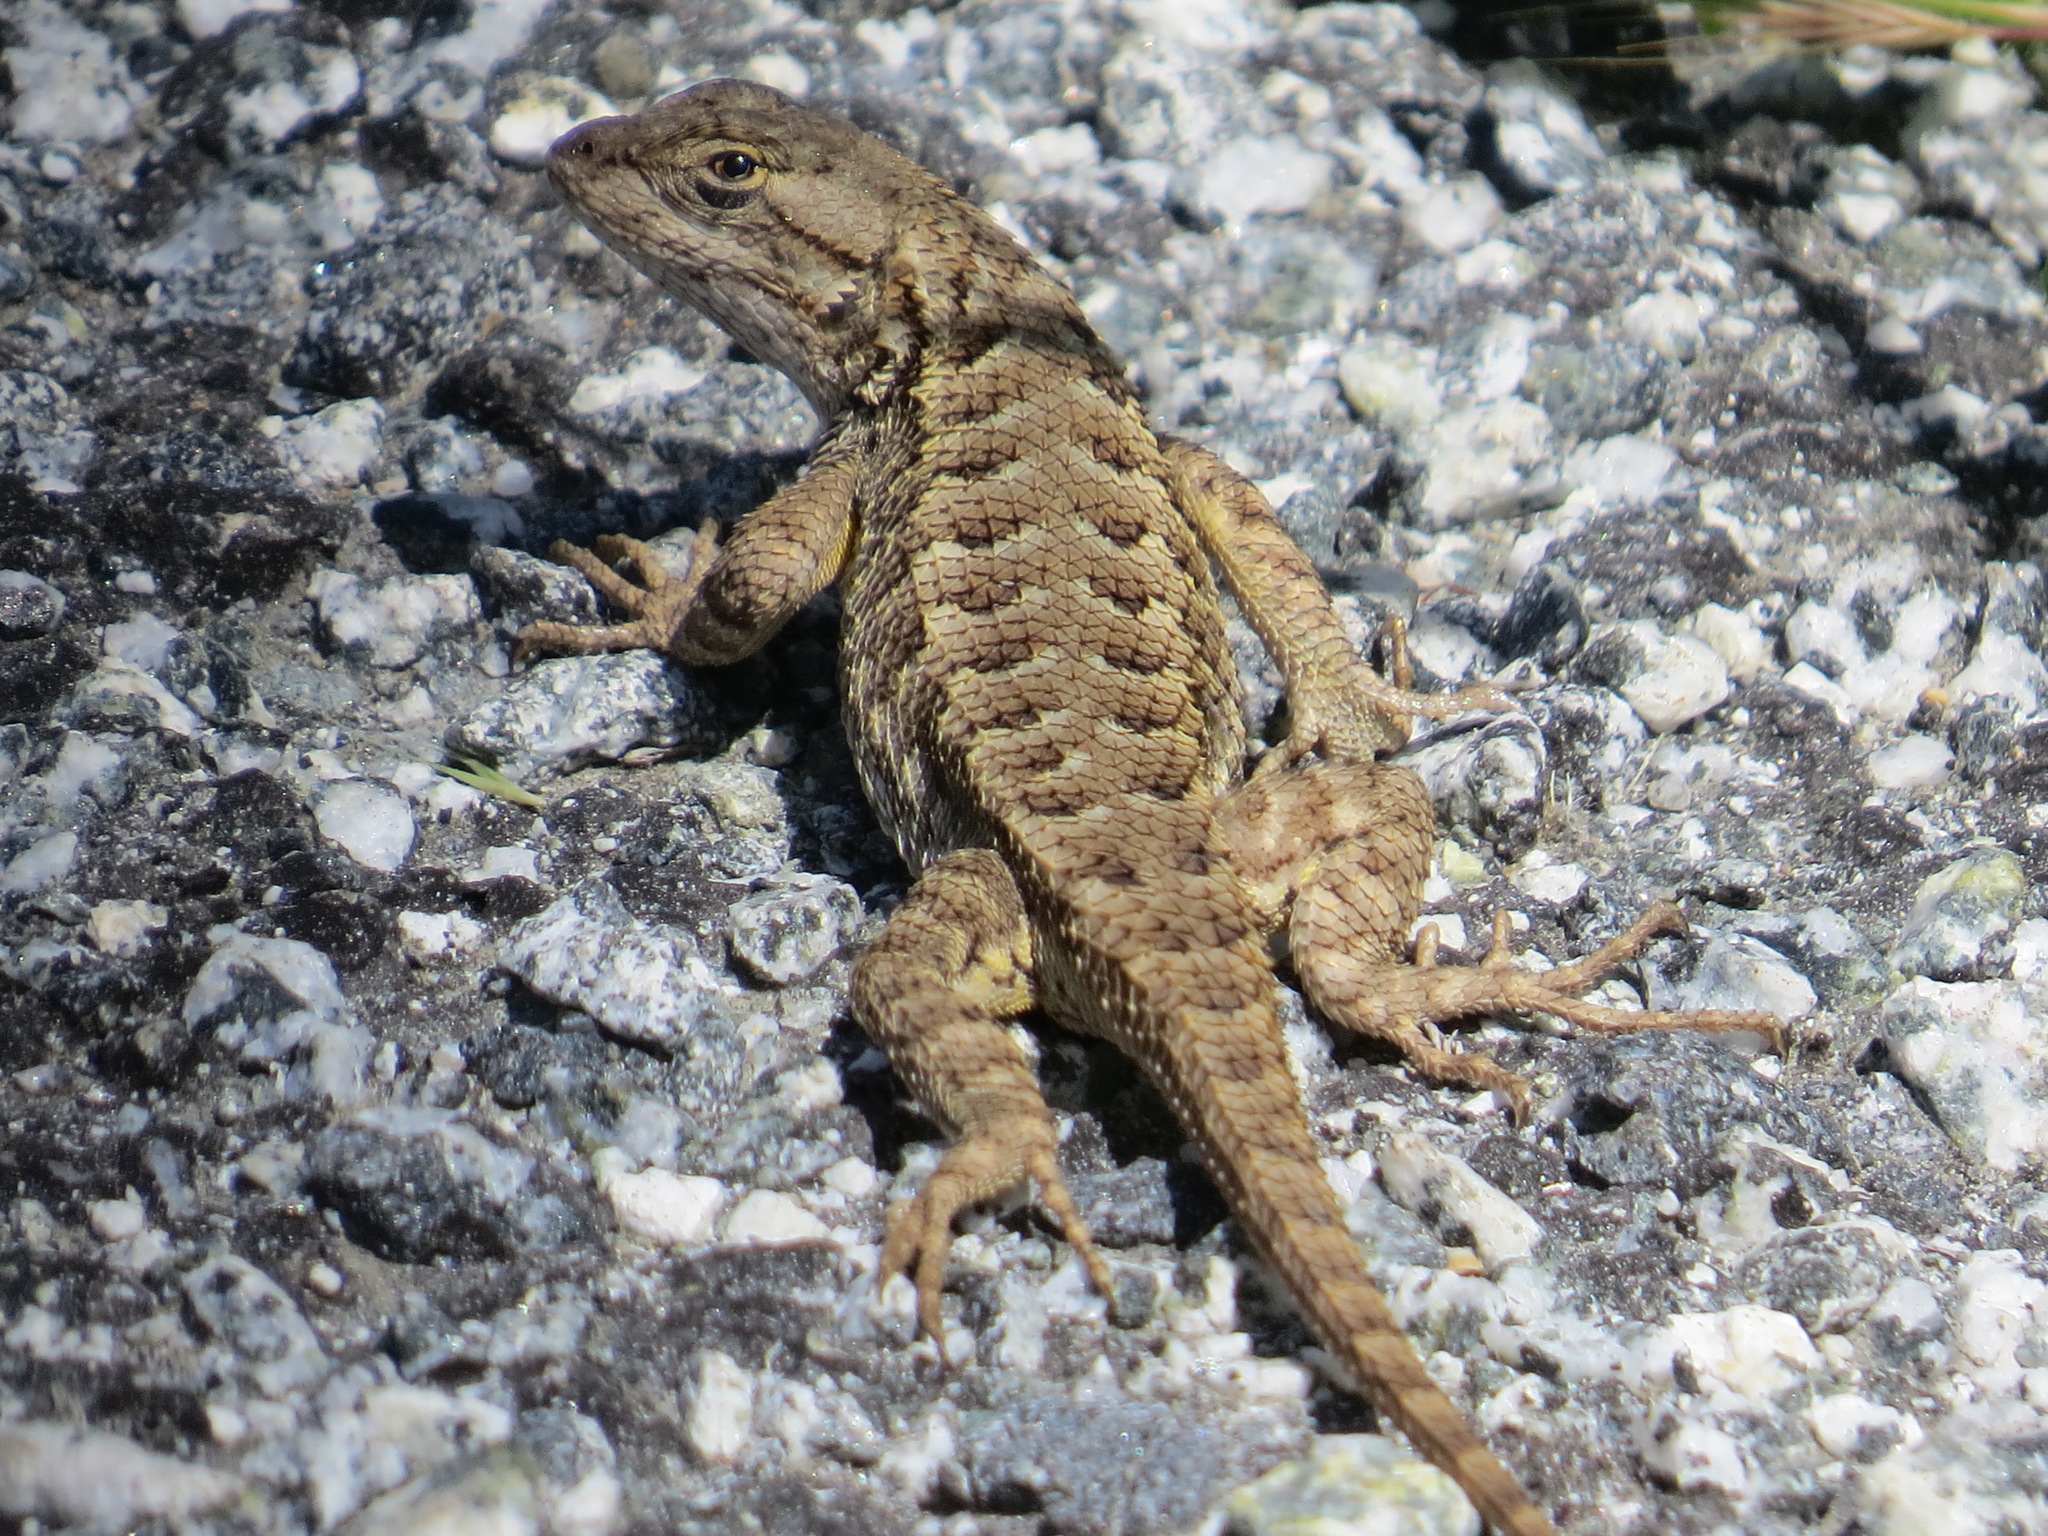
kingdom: Animalia
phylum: Chordata
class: Squamata
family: Phrynosomatidae
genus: Sceloporus
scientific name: Sceloporus occidentalis
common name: Western fence lizard
